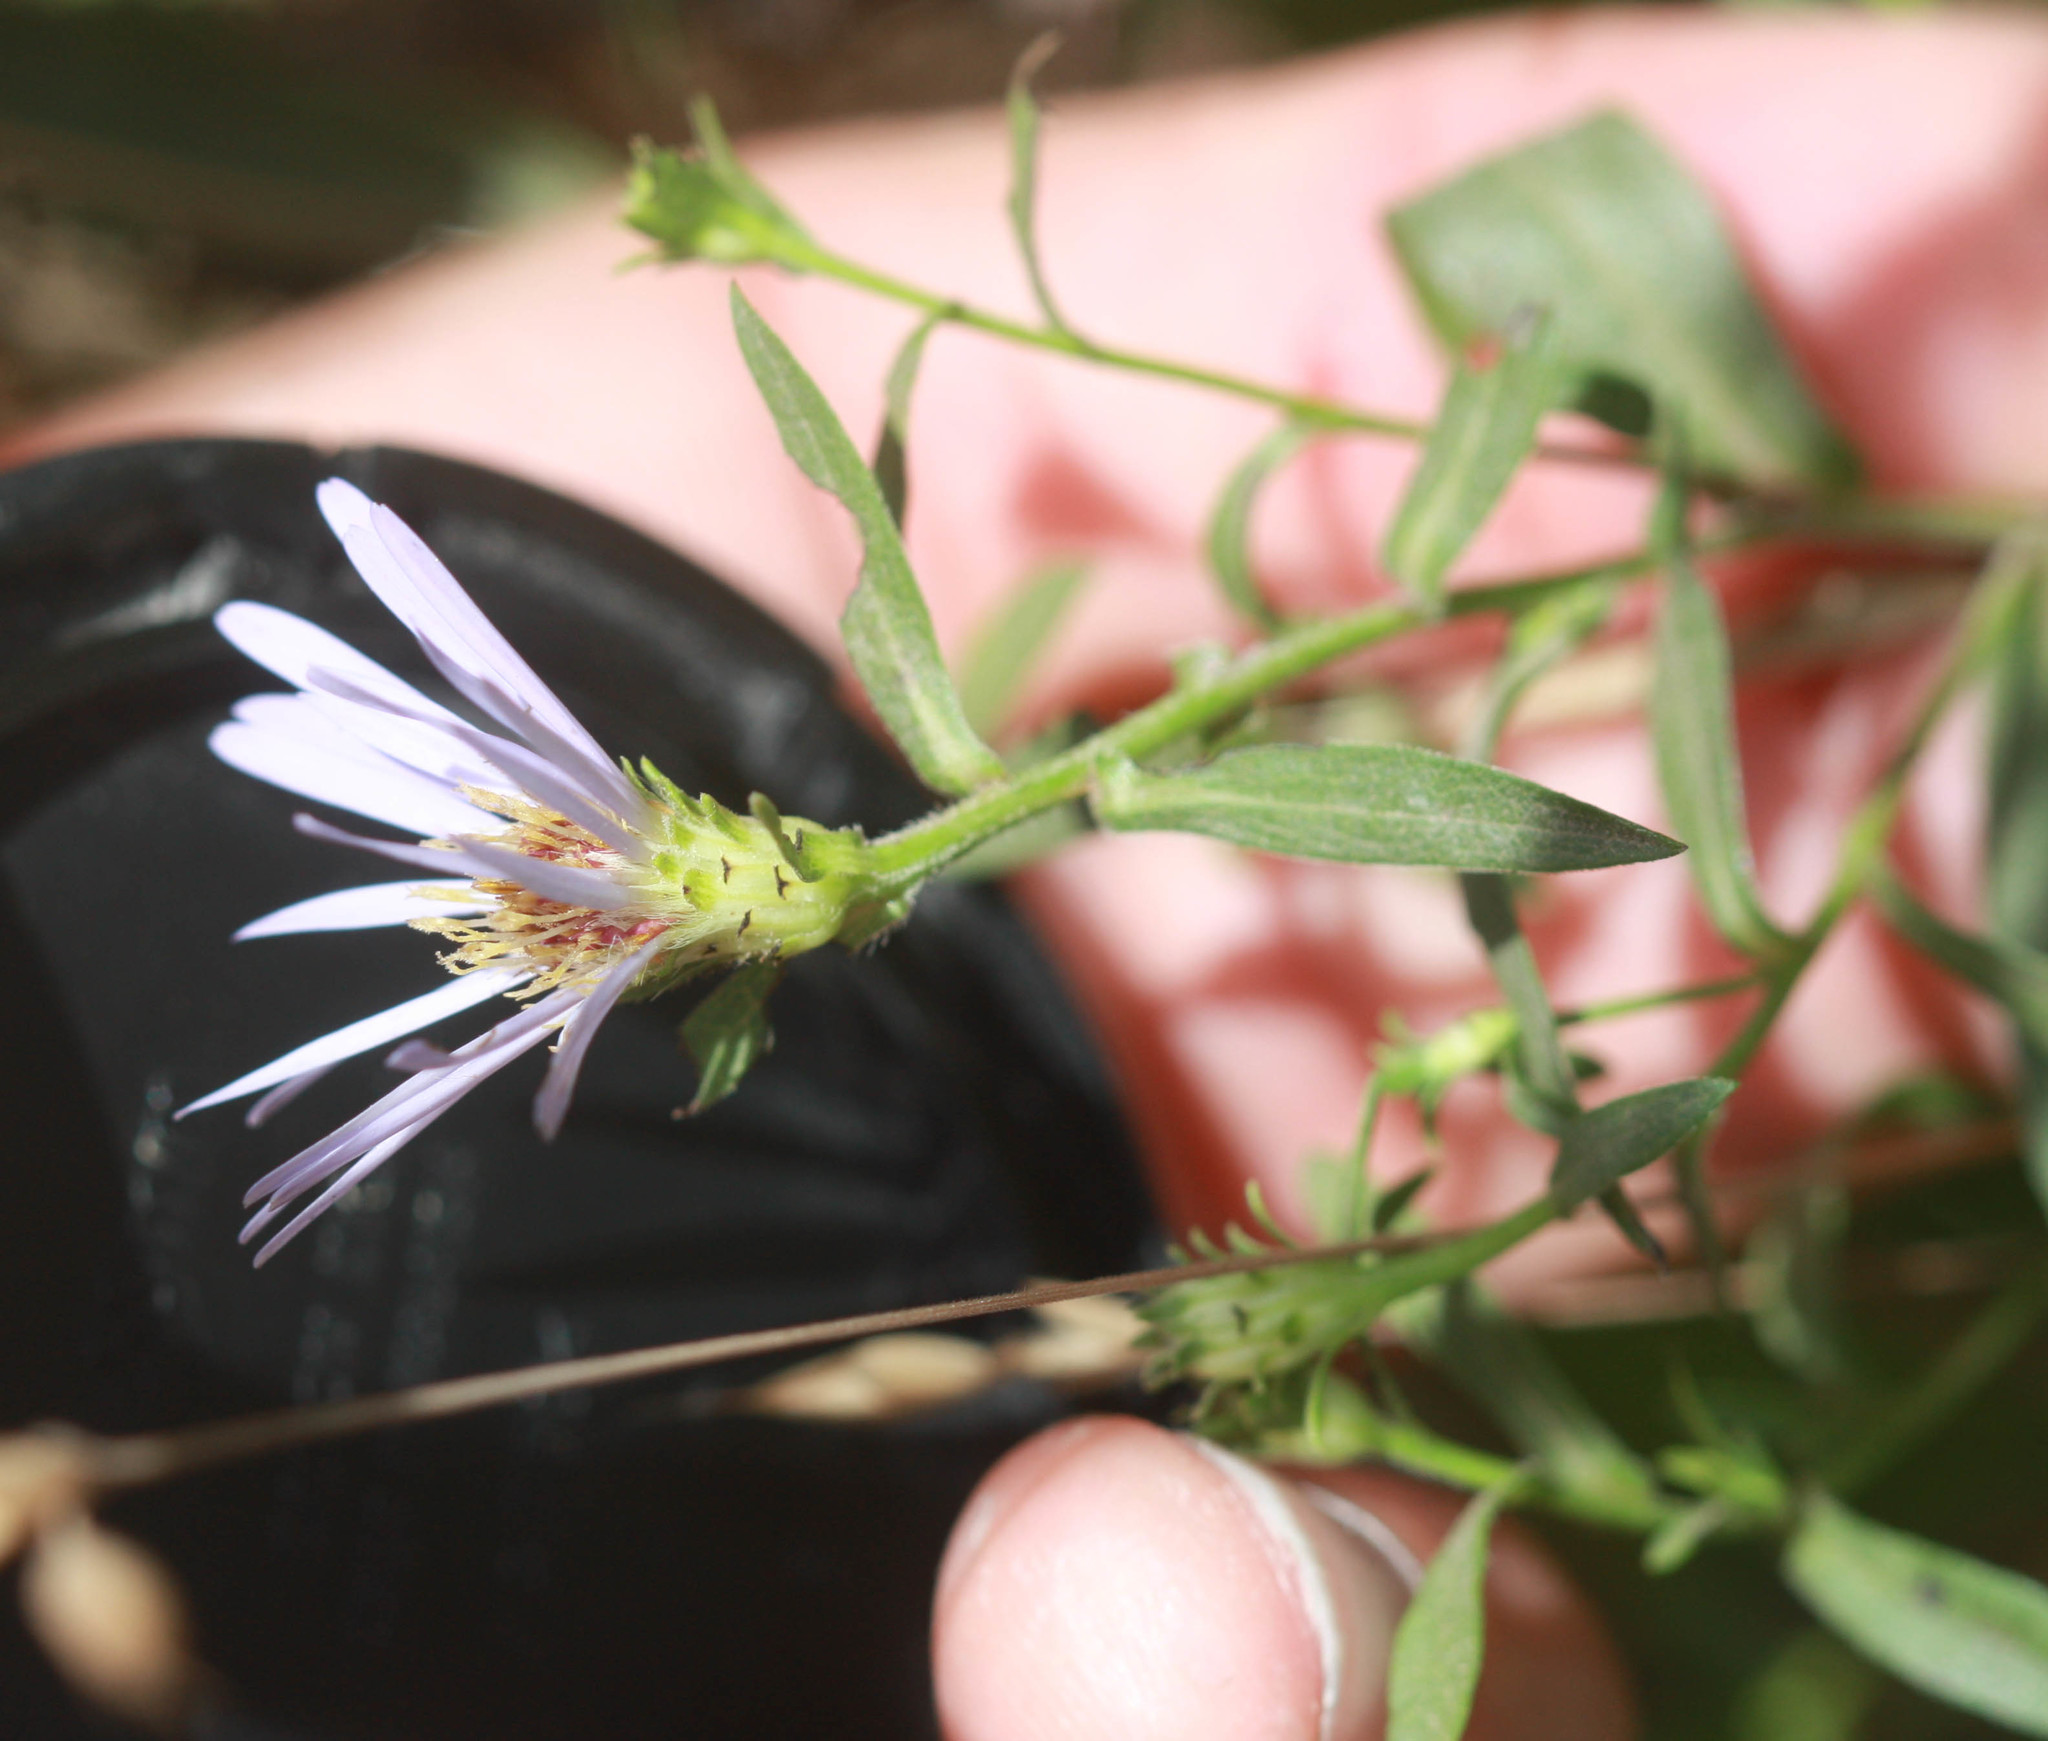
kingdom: Plantae
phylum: Tracheophyta
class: Magnoliopsida
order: Asterales
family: Asteraceae
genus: Symphyotrichum
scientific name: Symphyotrichum chilense
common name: Pacific aster
